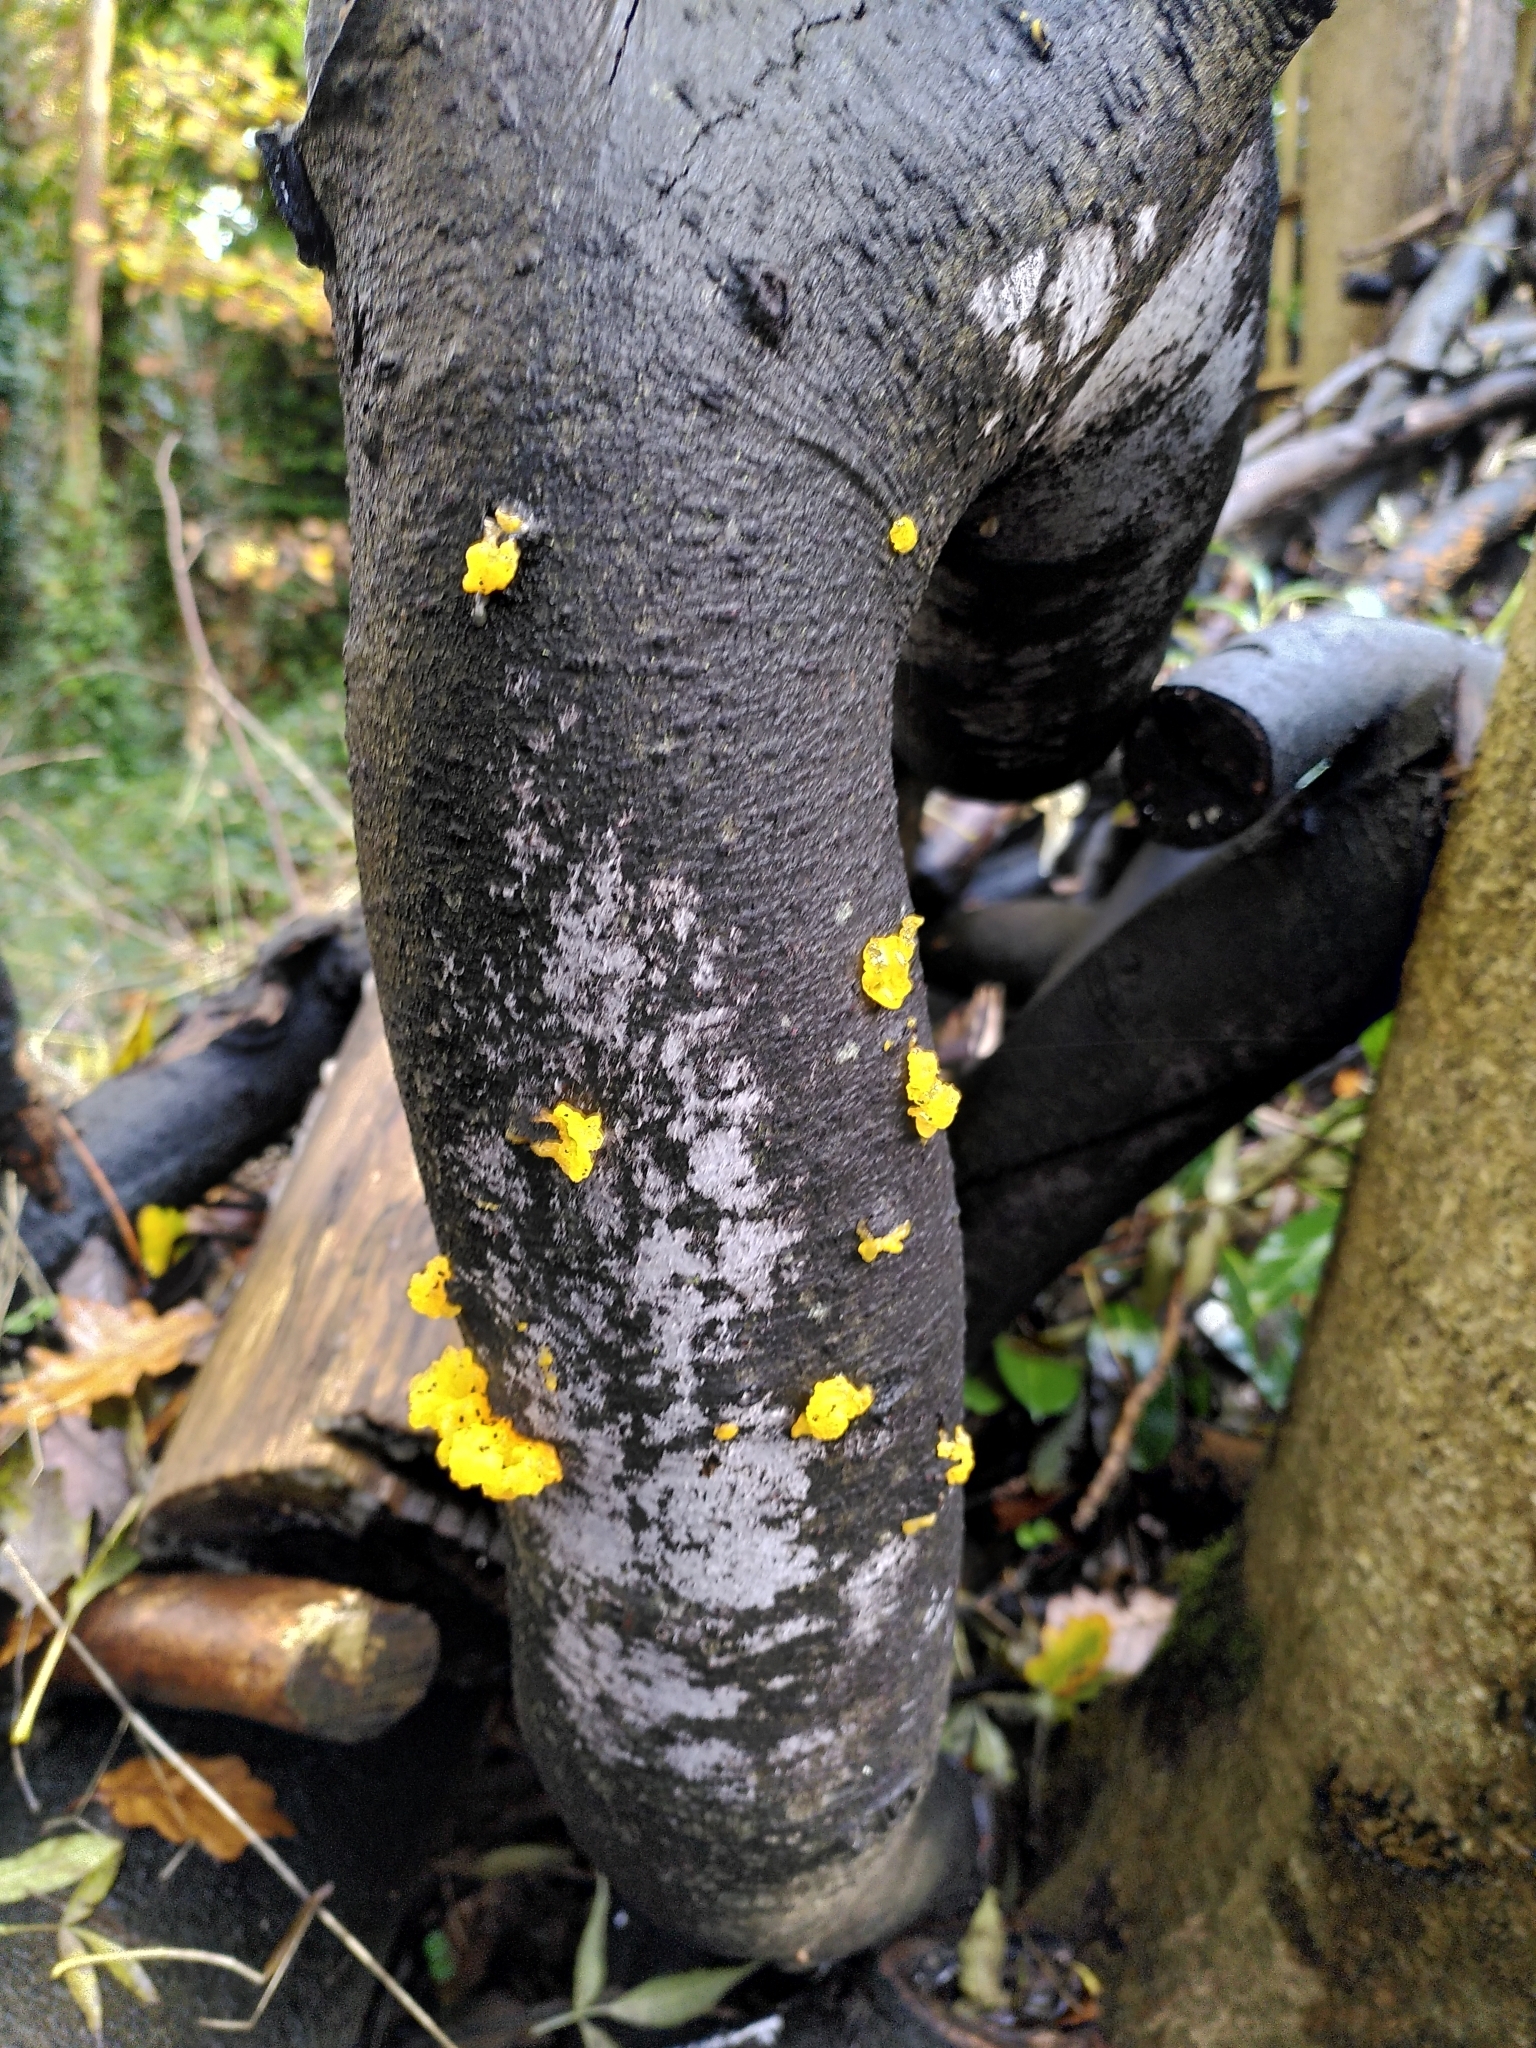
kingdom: Fungi
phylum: Basidiomycota
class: Tremellomycetes
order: Tremellales
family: Tremellaceae
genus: Tremella
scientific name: Tremella mesenterica
